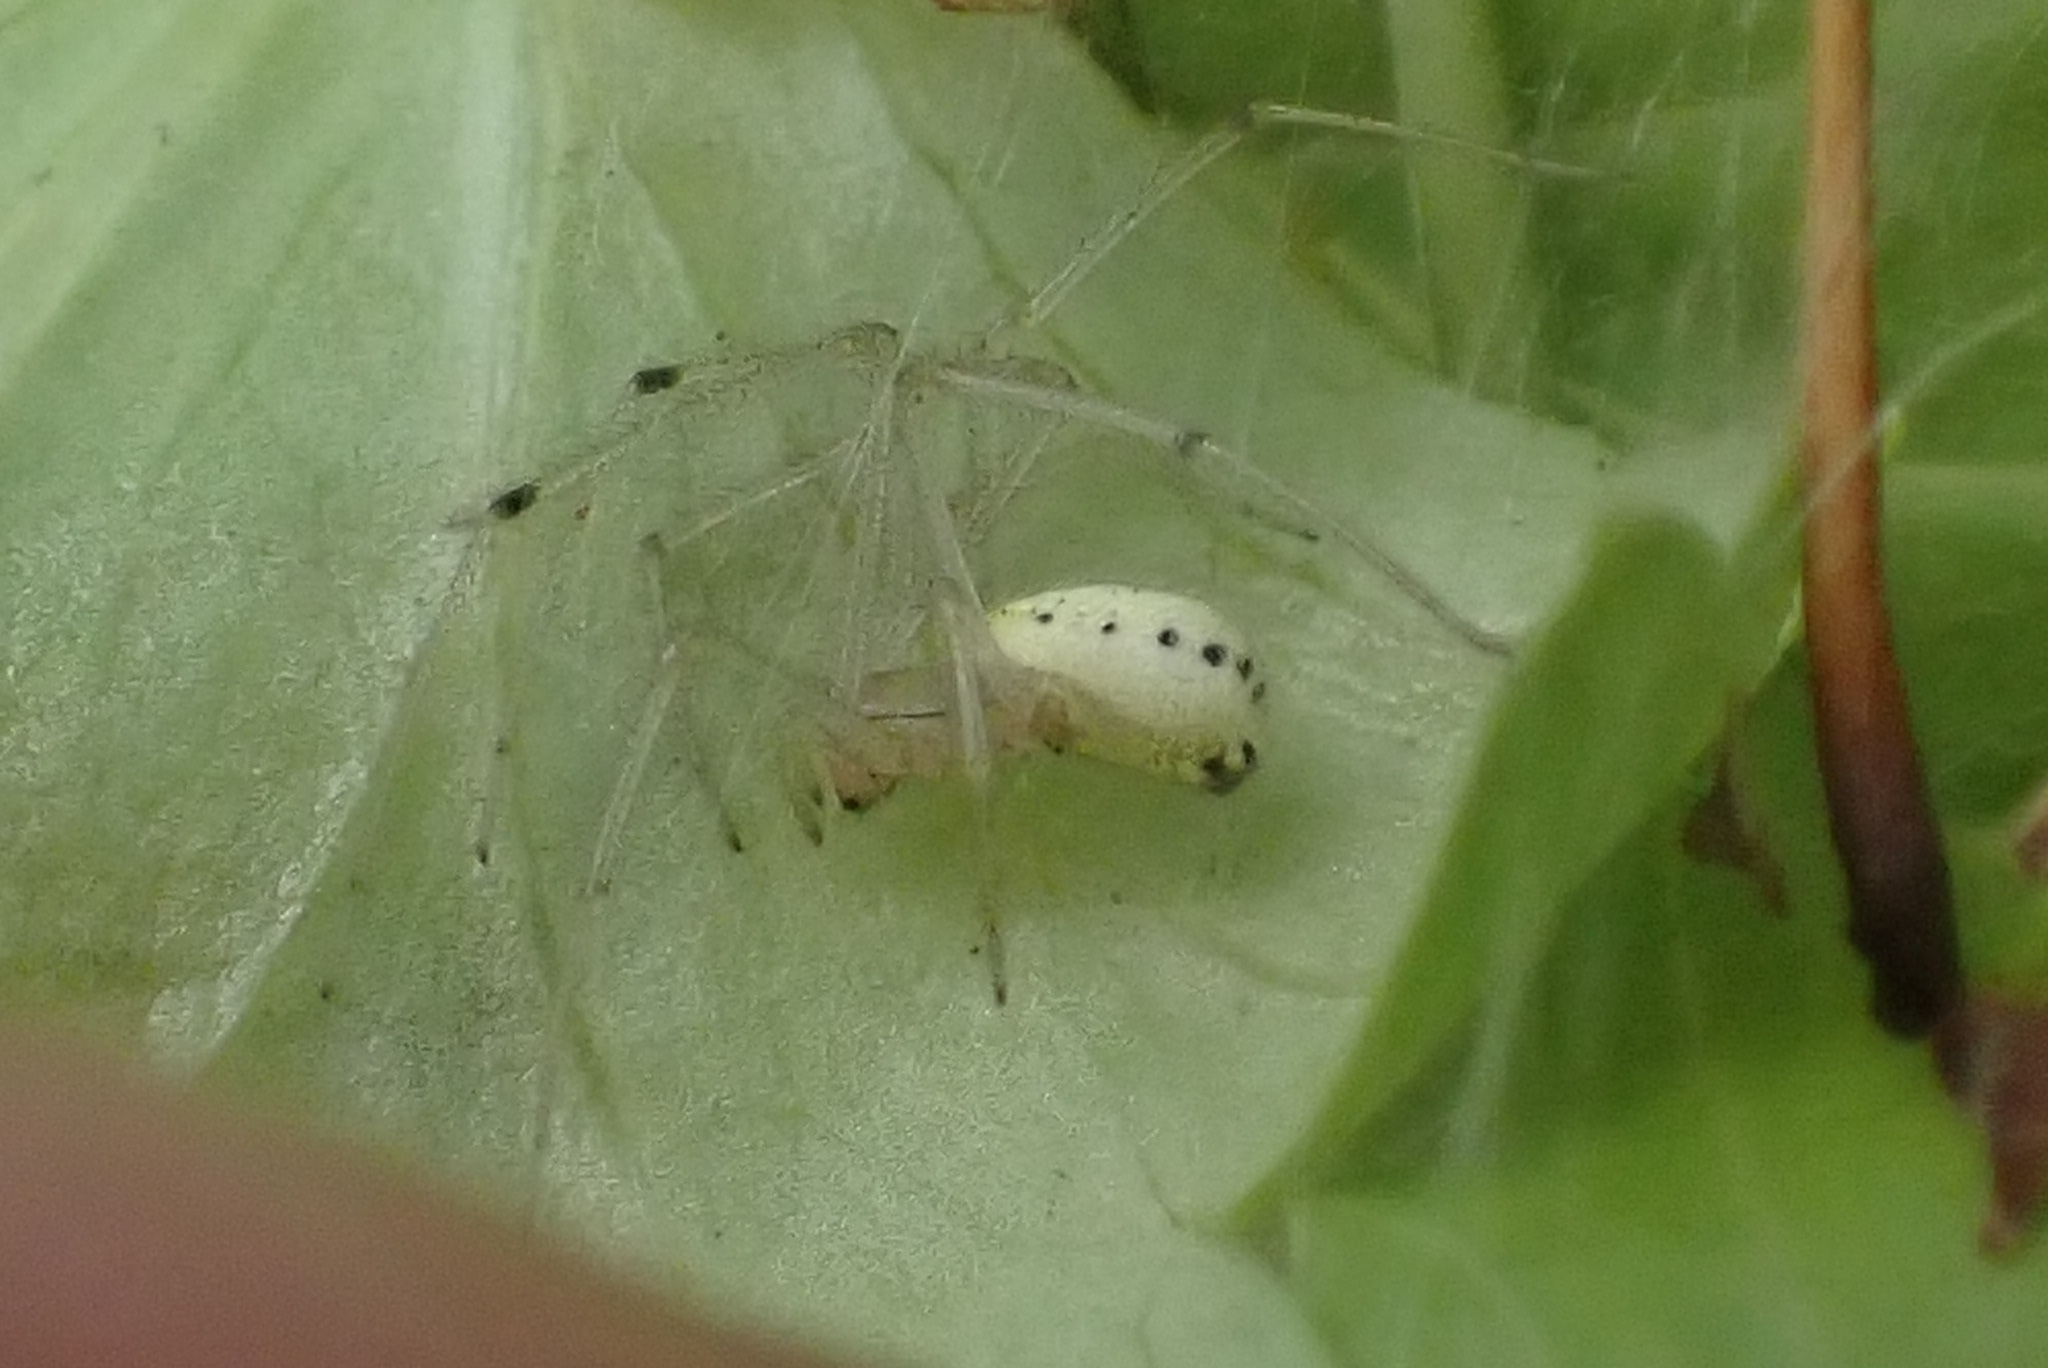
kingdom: Animalia
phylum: Arthropoda
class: Arachnida
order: Araneae
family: Theridiidae
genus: Enoplognatha
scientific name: Enoplognatha ovata
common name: Common candy-striped spider
